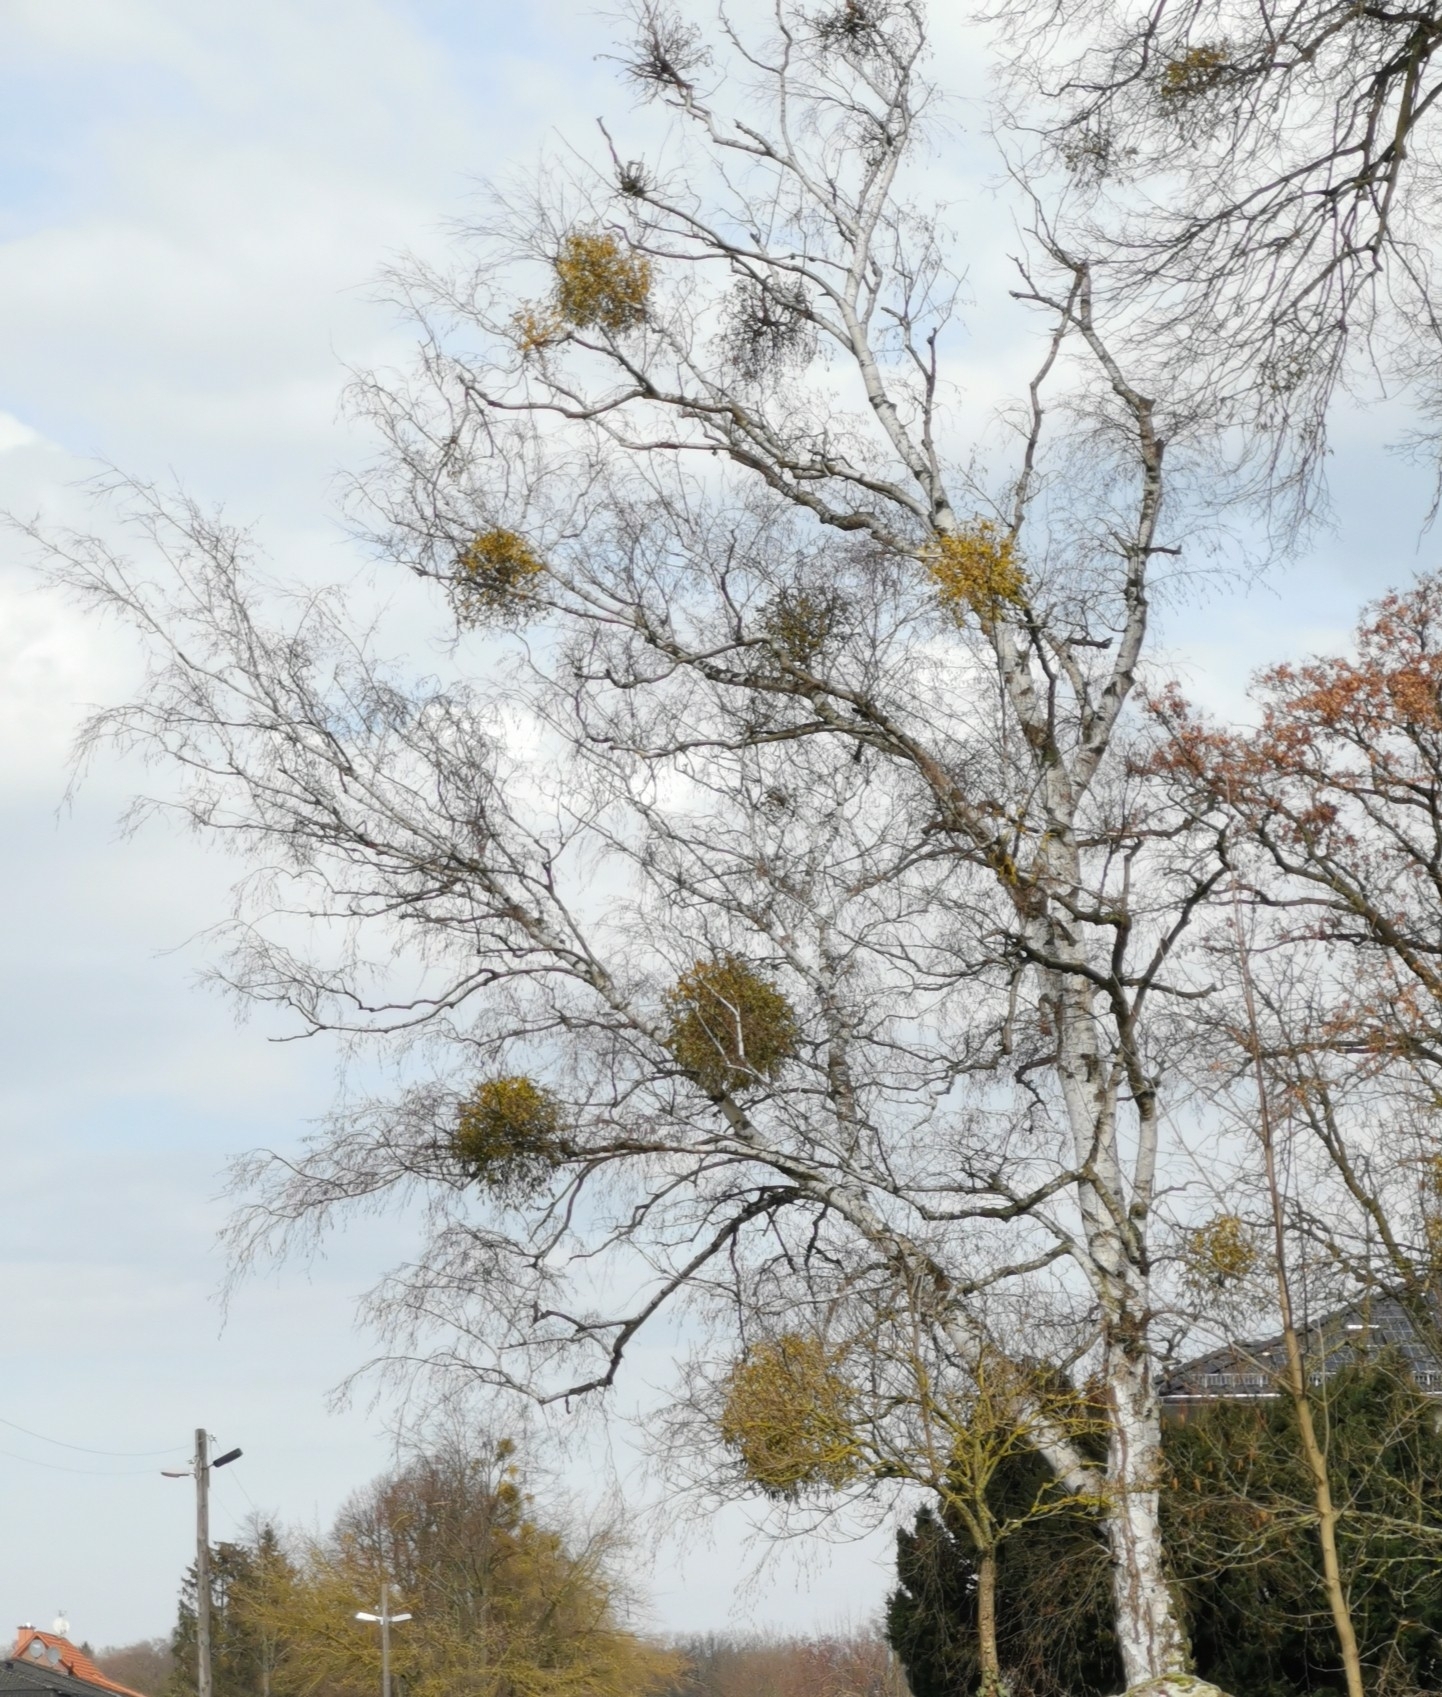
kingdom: Plantae
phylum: Tracheophyta
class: Magnoliopsida
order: Santalales
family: Viscaceae
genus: Viscum
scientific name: Viscum album
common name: Mistletoe
